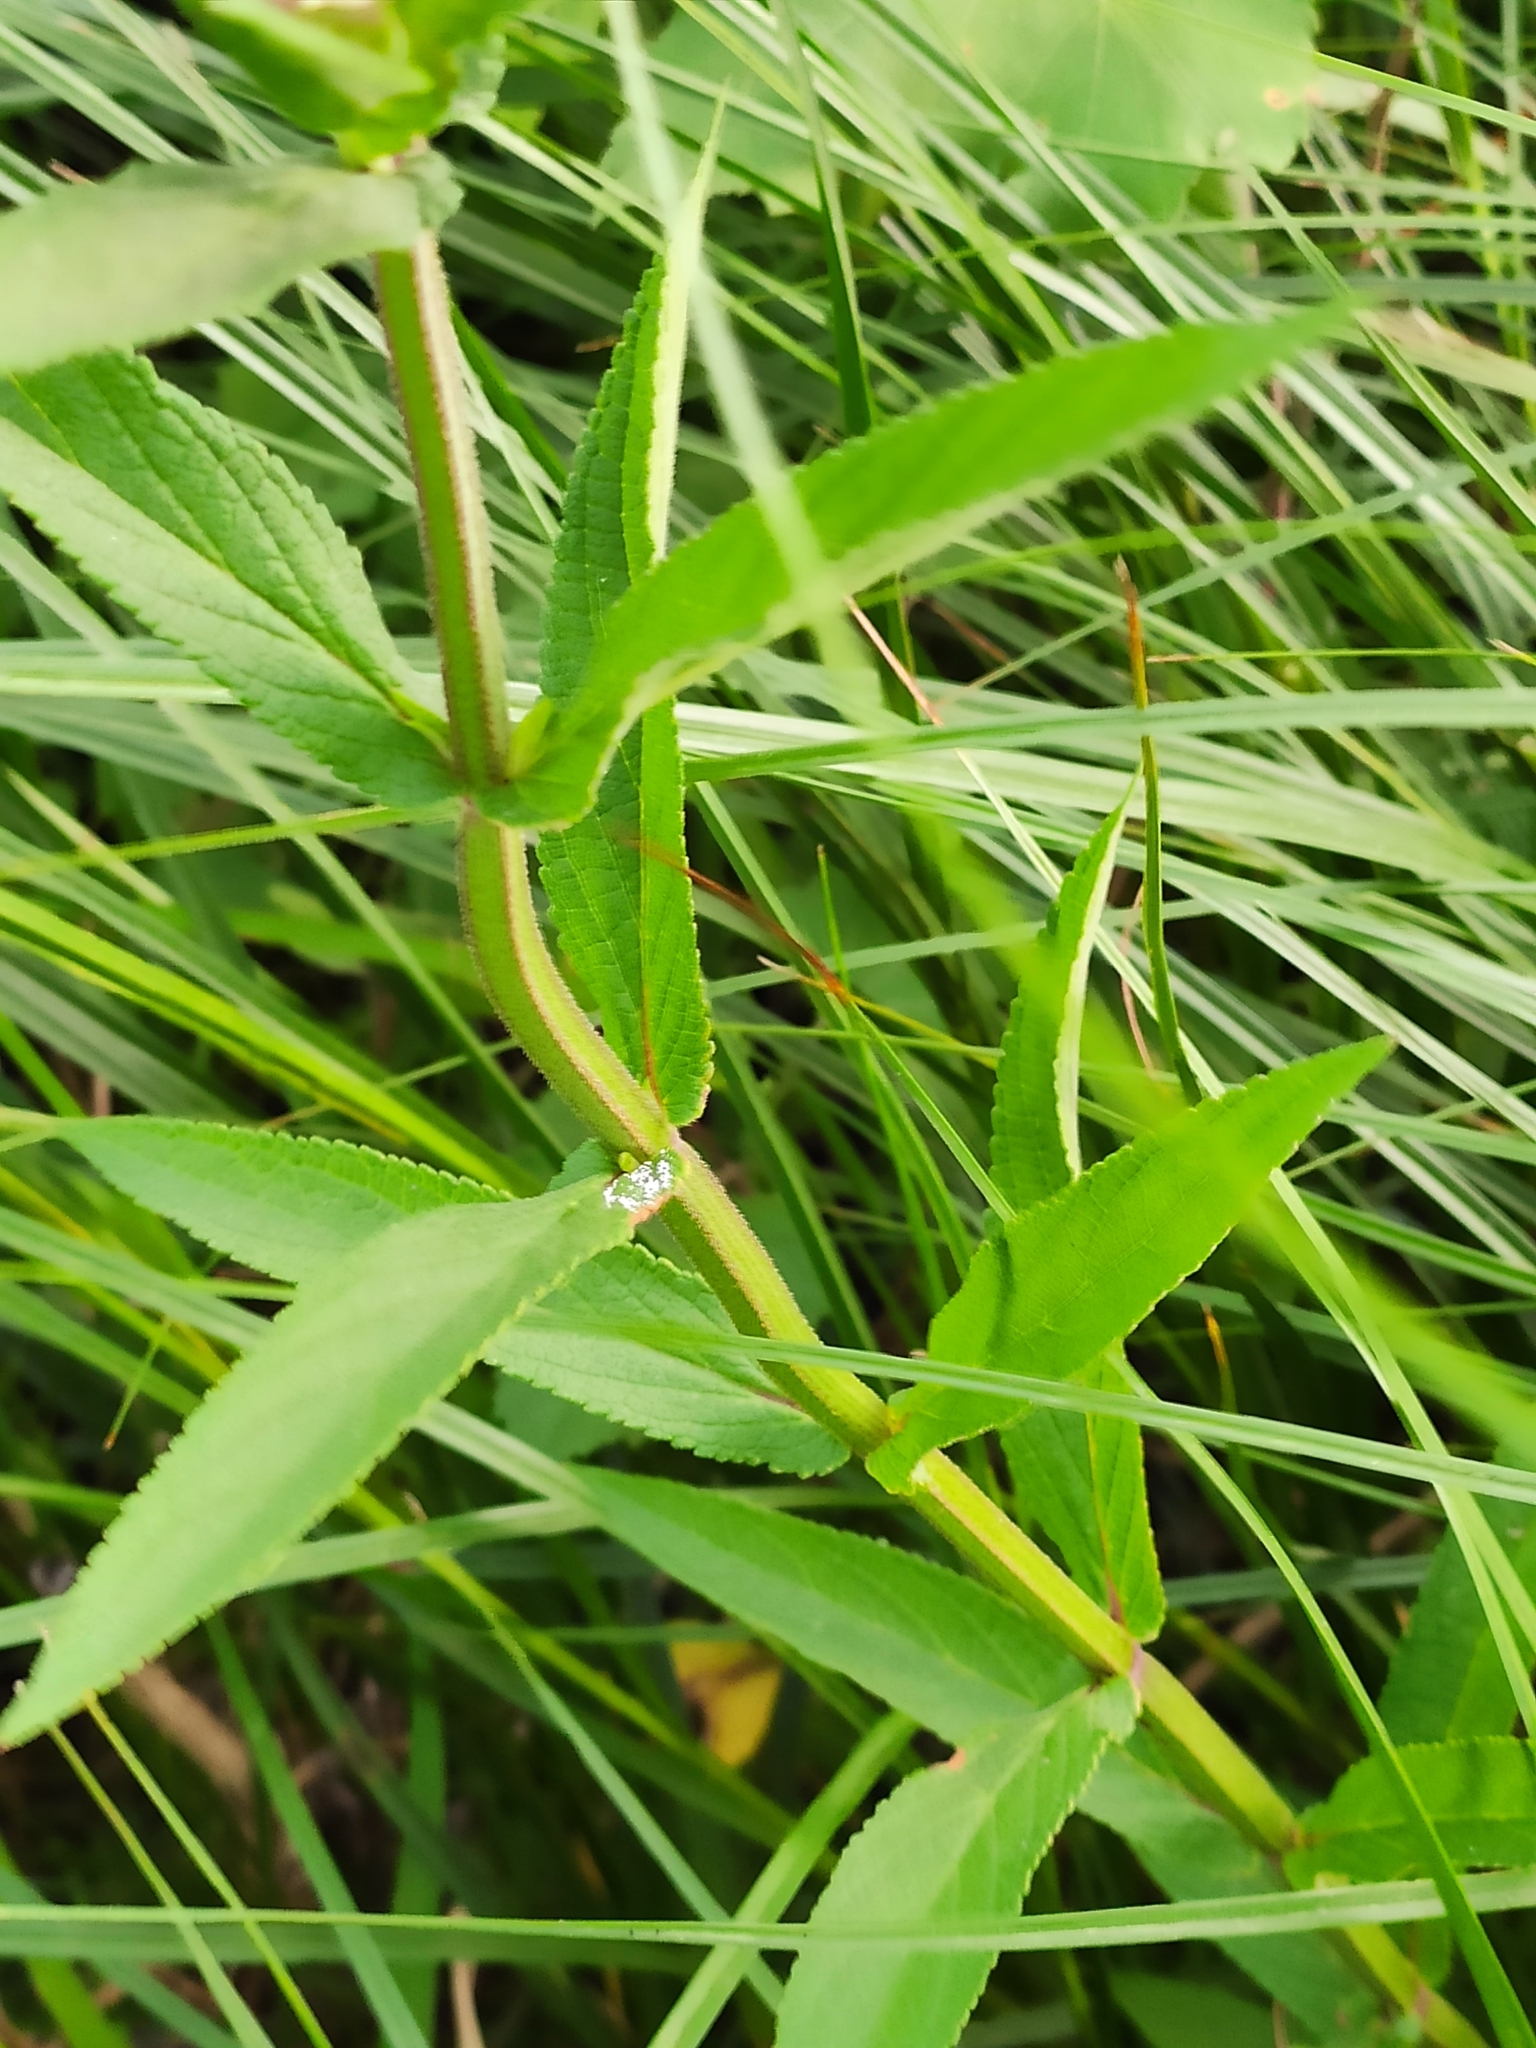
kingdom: Plantae
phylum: Tracheophyta
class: Magnoliopsida
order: Lamiales
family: Lamiaceae
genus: Stachys
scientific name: Stachys palustris
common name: Marsh woundwort
